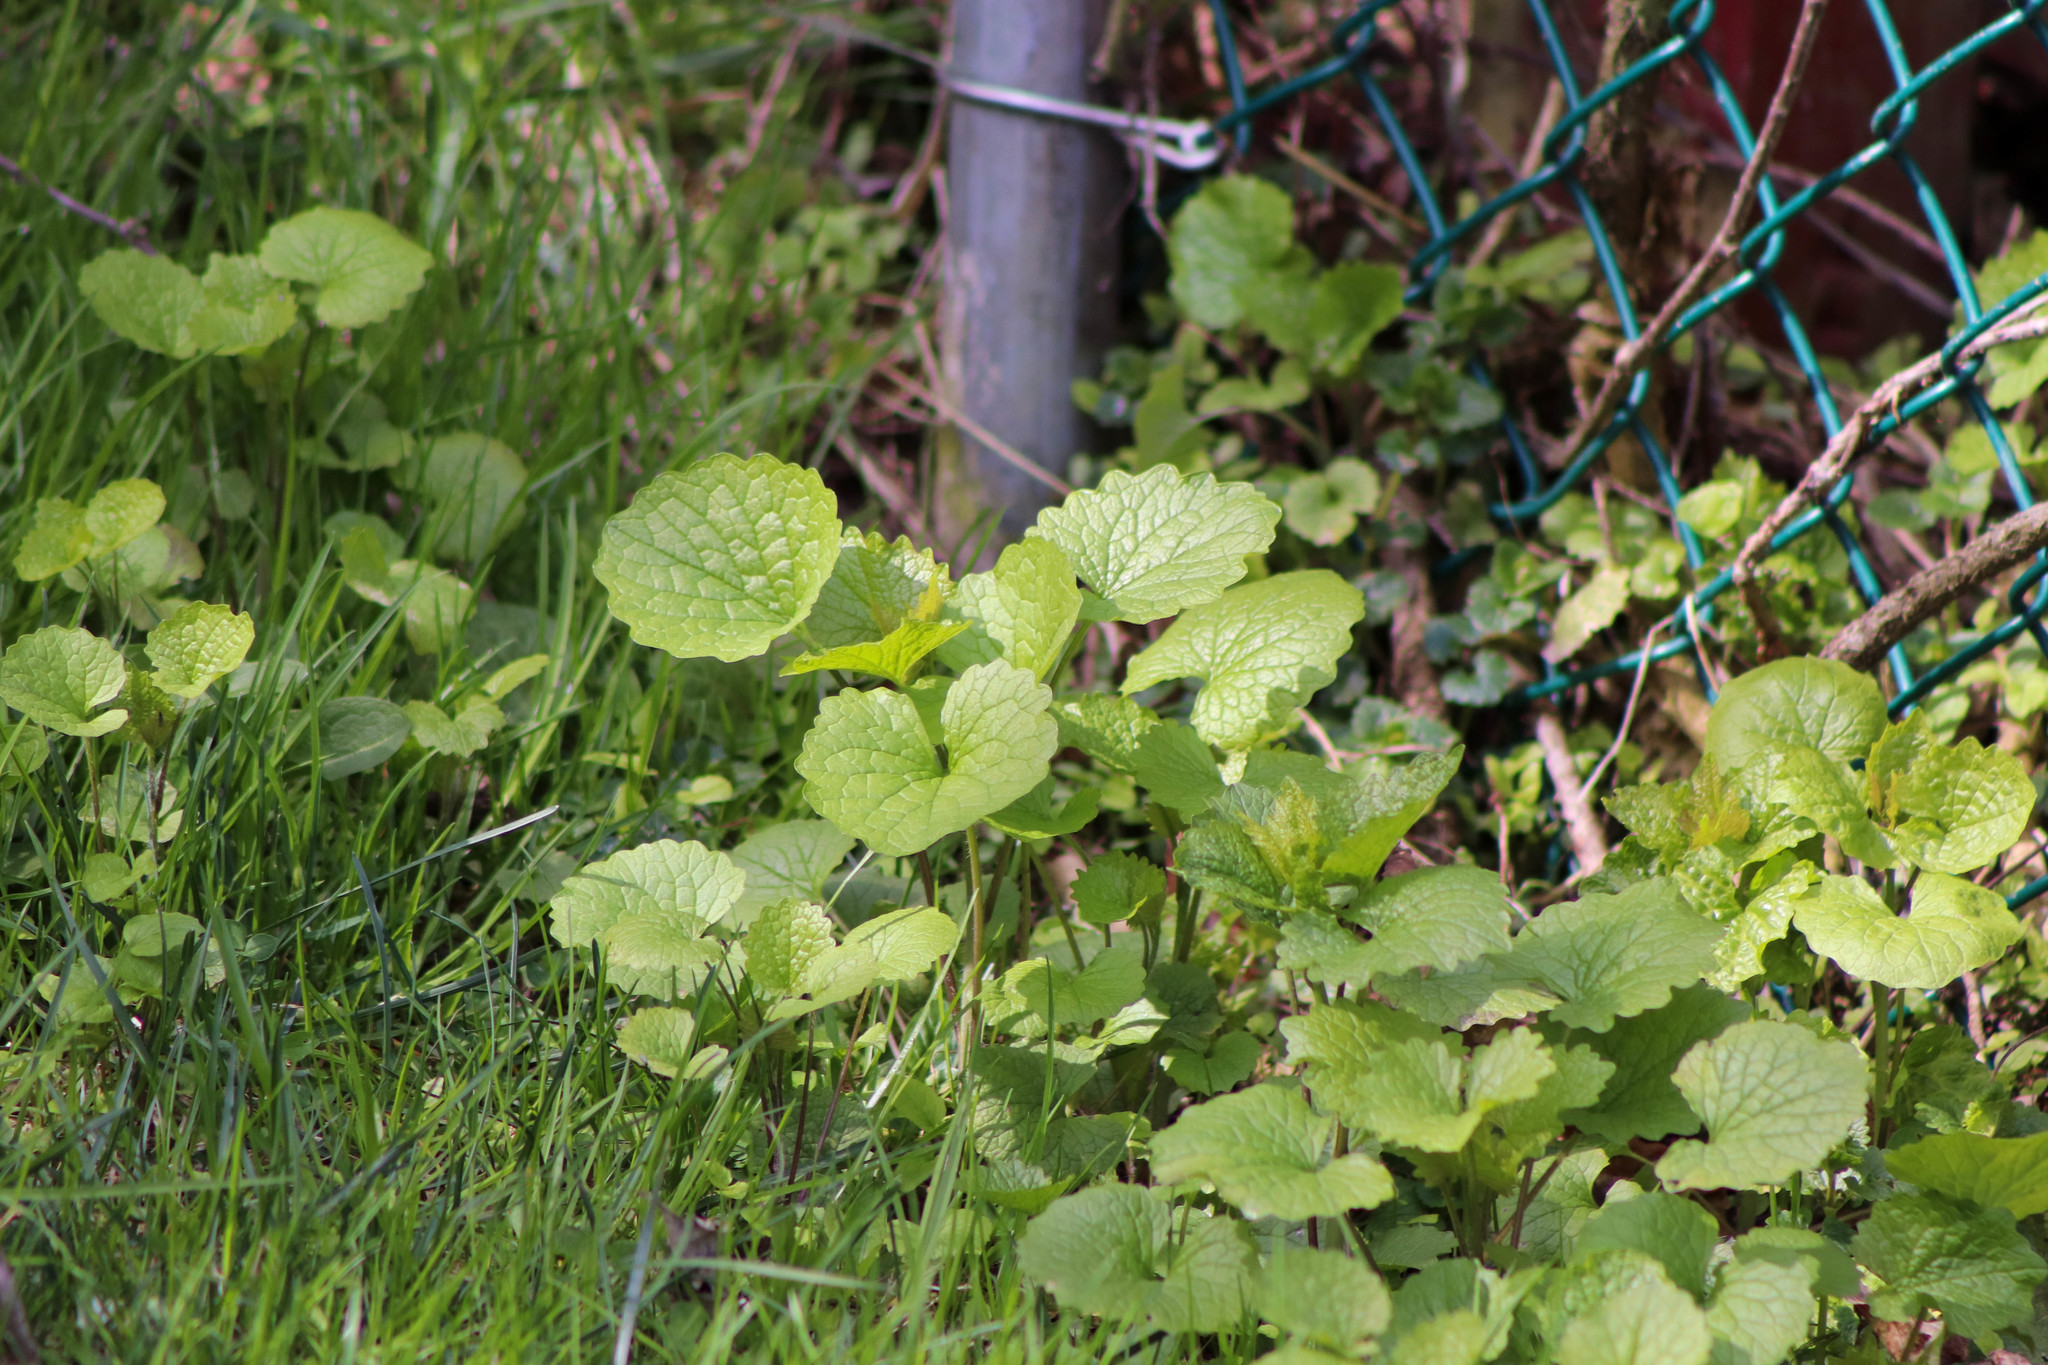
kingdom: Plantae
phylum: Tracheophyta
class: Magnoliopsida
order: Brassicales
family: Brassicaceae
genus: Alliaria
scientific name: Alliaria petiolata
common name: Garlic mustard
